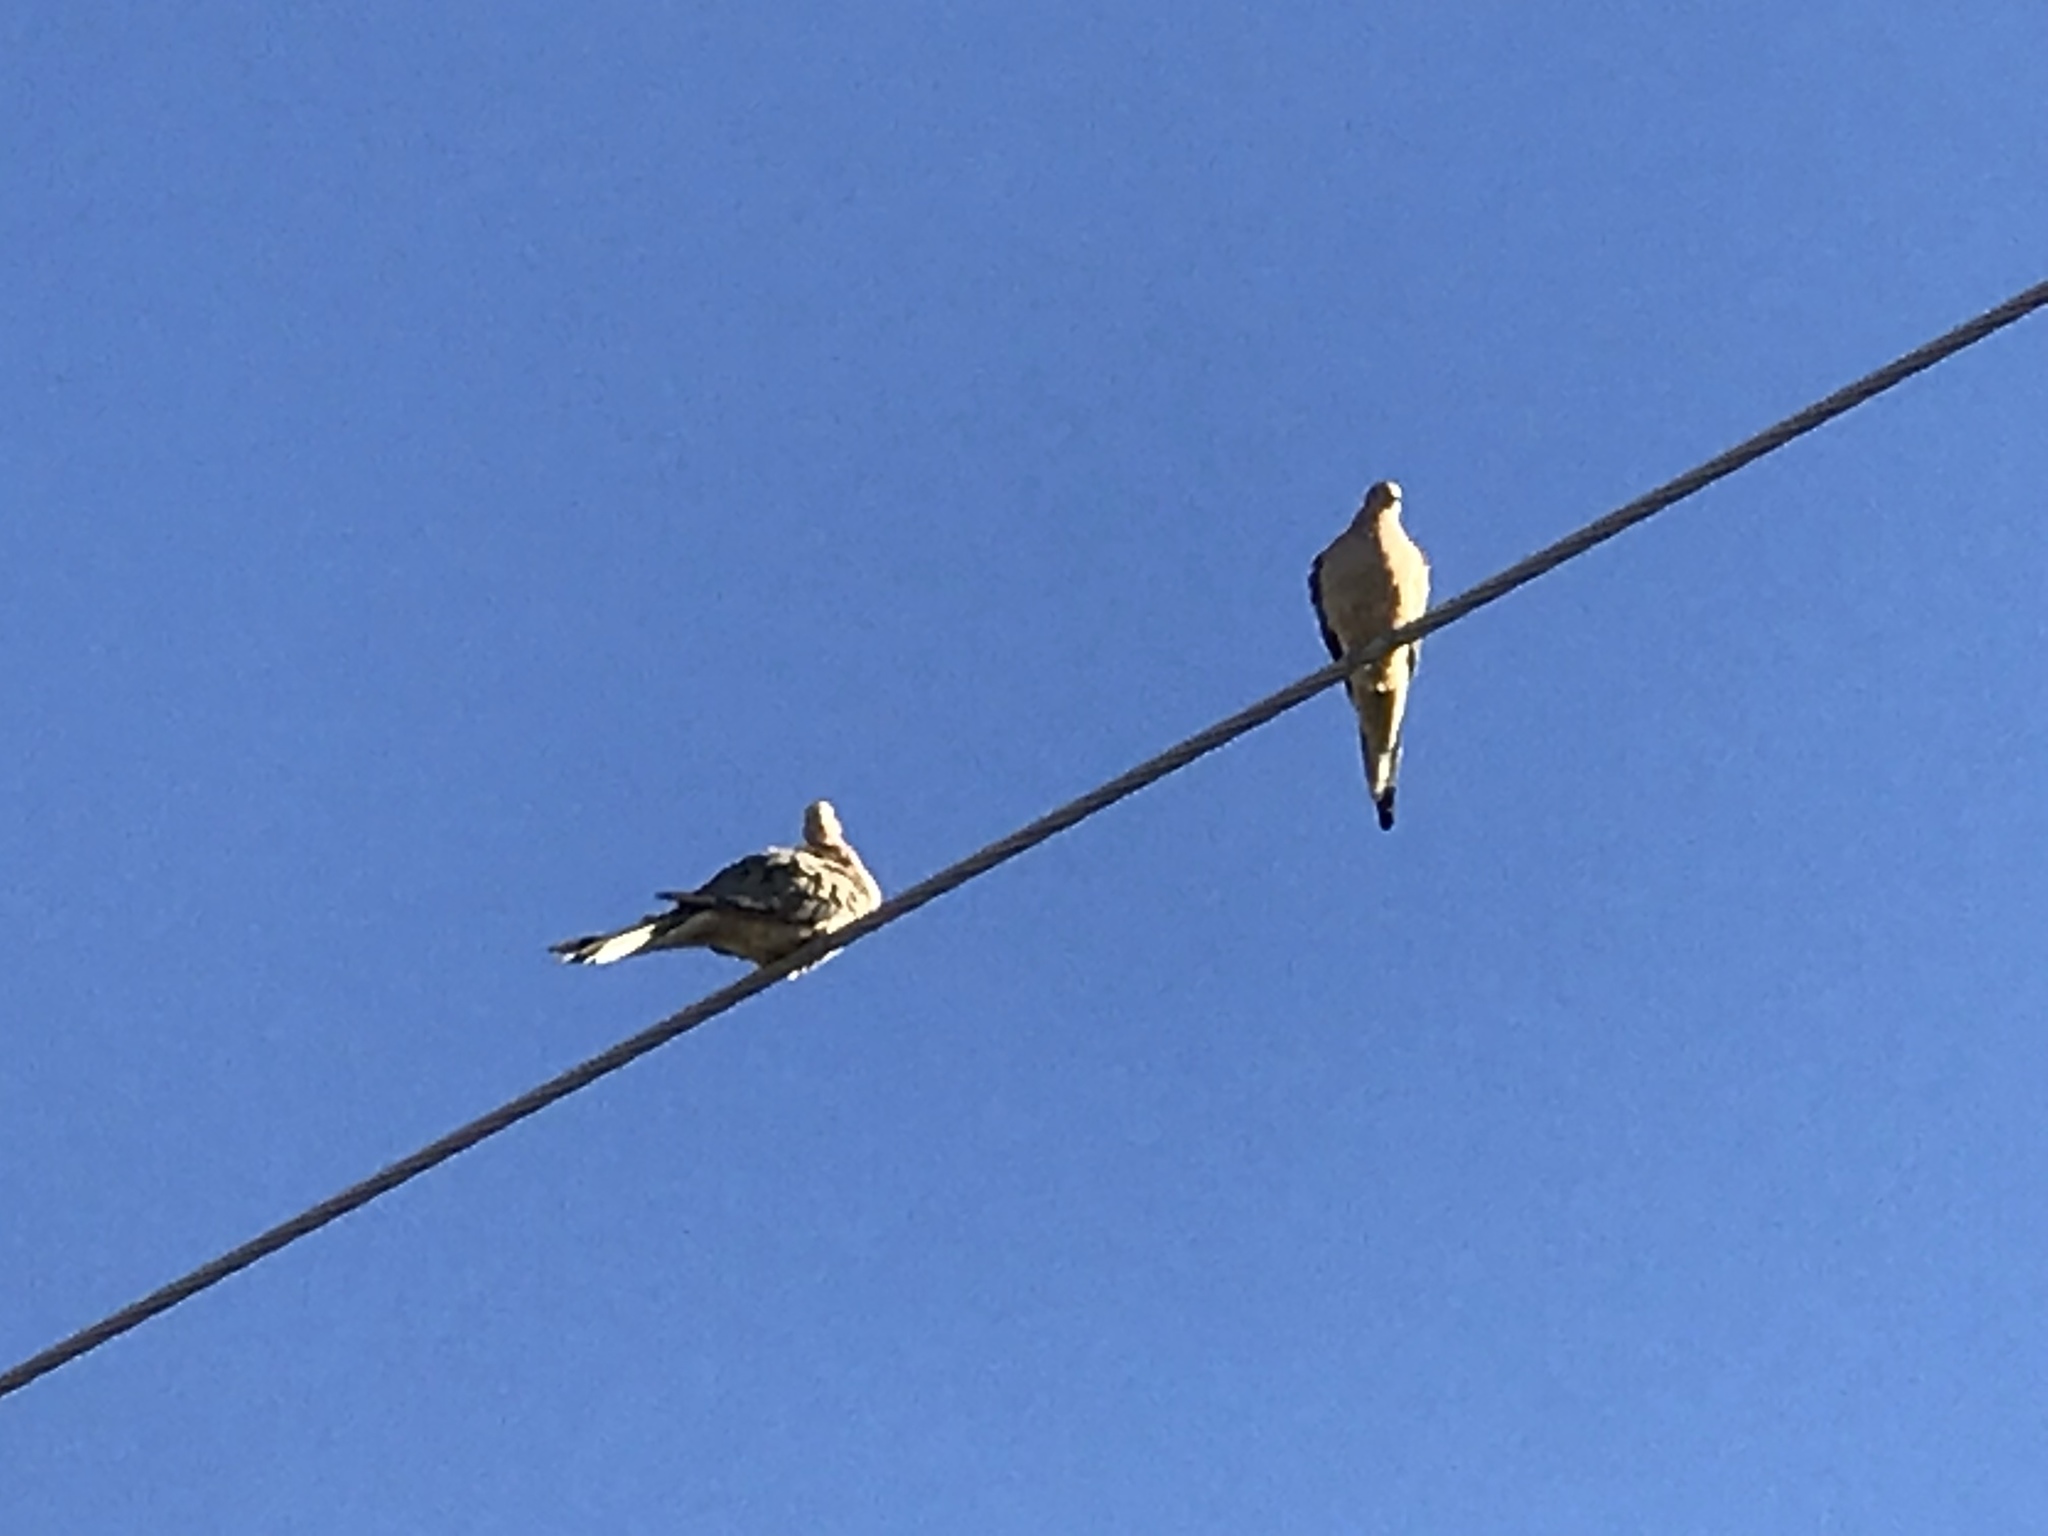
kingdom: Animalia
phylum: Chordata
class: Aves
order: Columbiformes
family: Columbidae
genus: Zenaida
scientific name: Zenaida macroura
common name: Mourning dove
